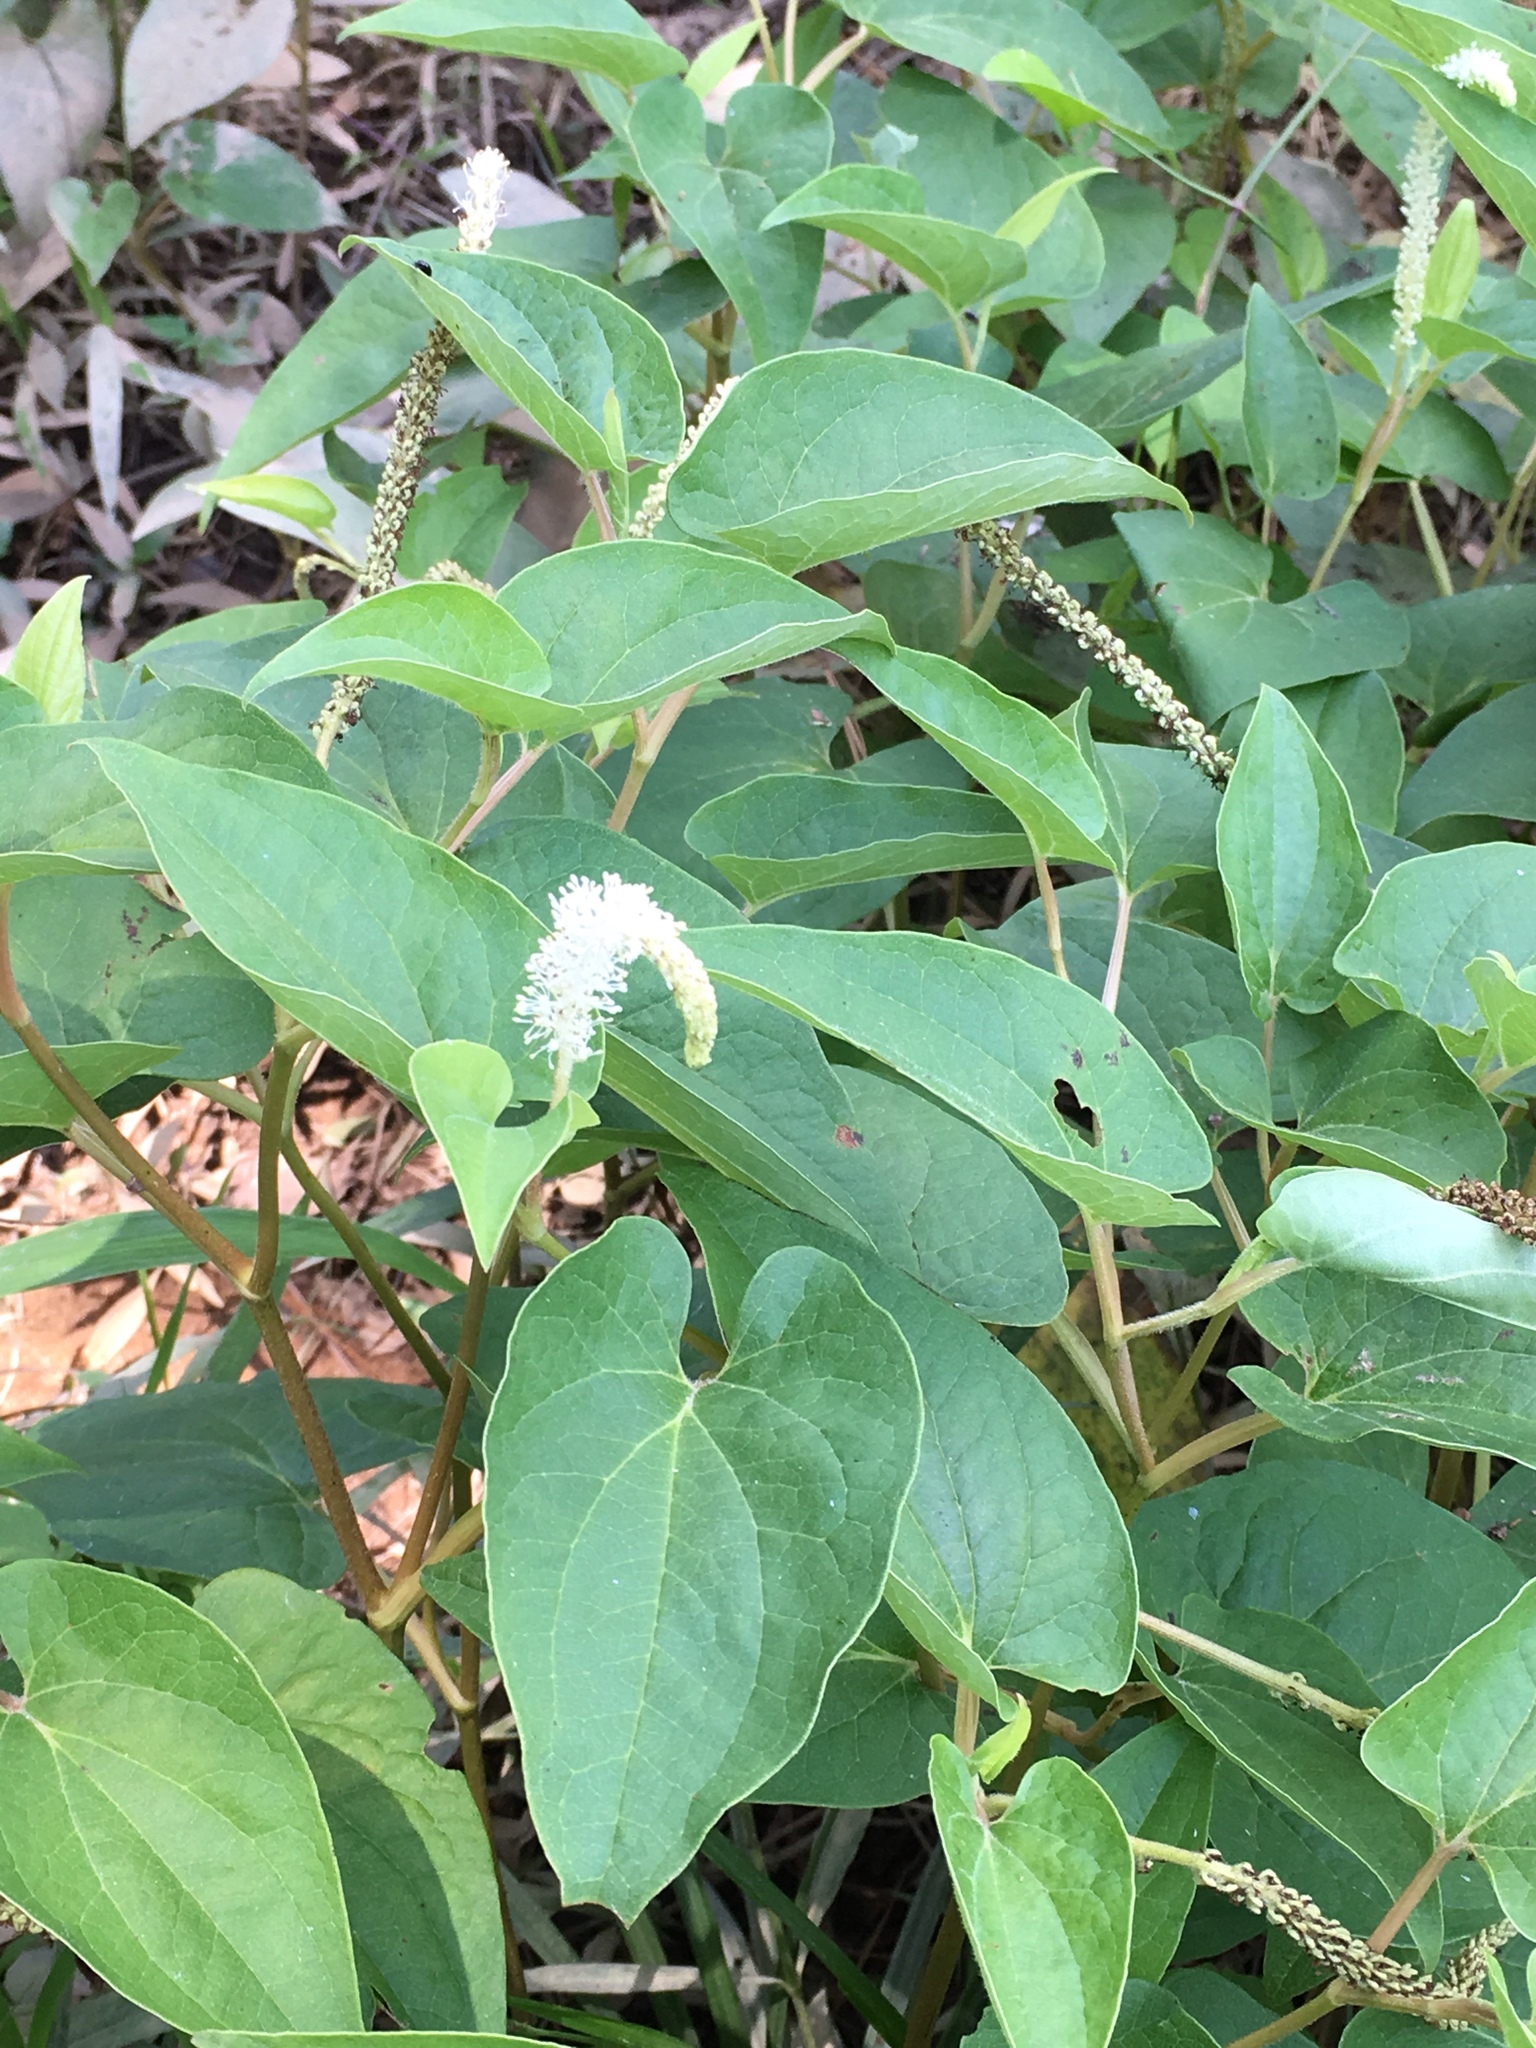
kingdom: Plantae
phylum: Tracheophyta
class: Magnoliopsida
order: Piperales
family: Saururaceae
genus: Saururus
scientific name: Saururus cernuus
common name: Lizard's-tail
